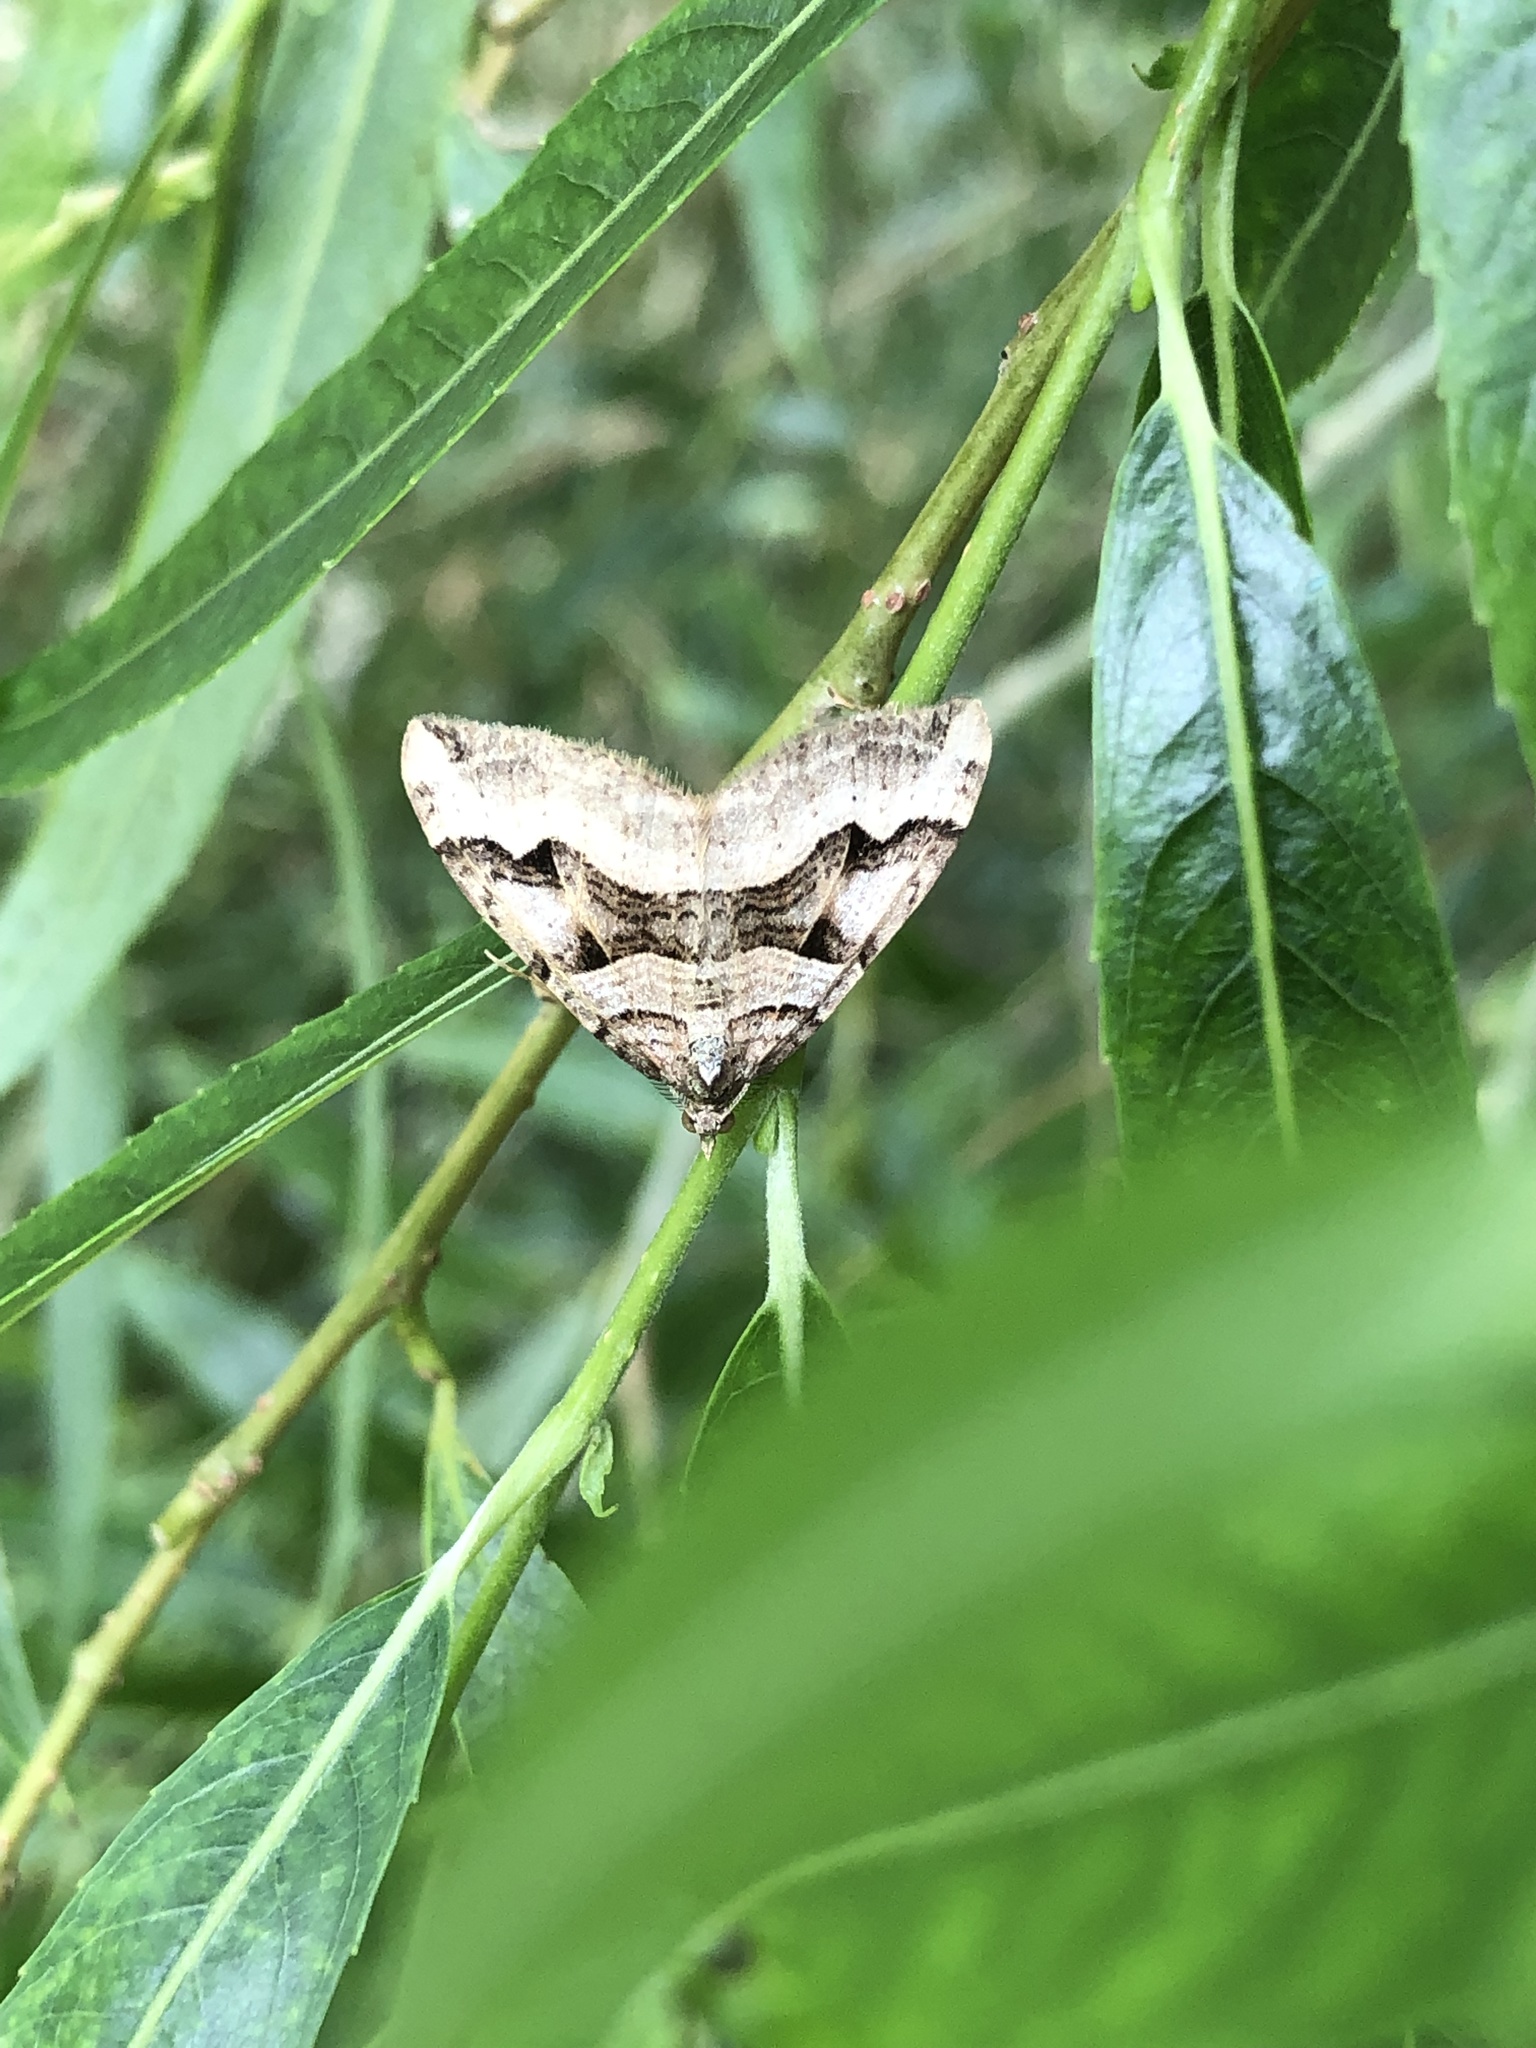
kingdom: Animalia
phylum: Arthropoda
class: Insecta
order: Lepidoptera
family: Geometridae
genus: Xanthorhoe
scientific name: Xanthorhoe semifissata
